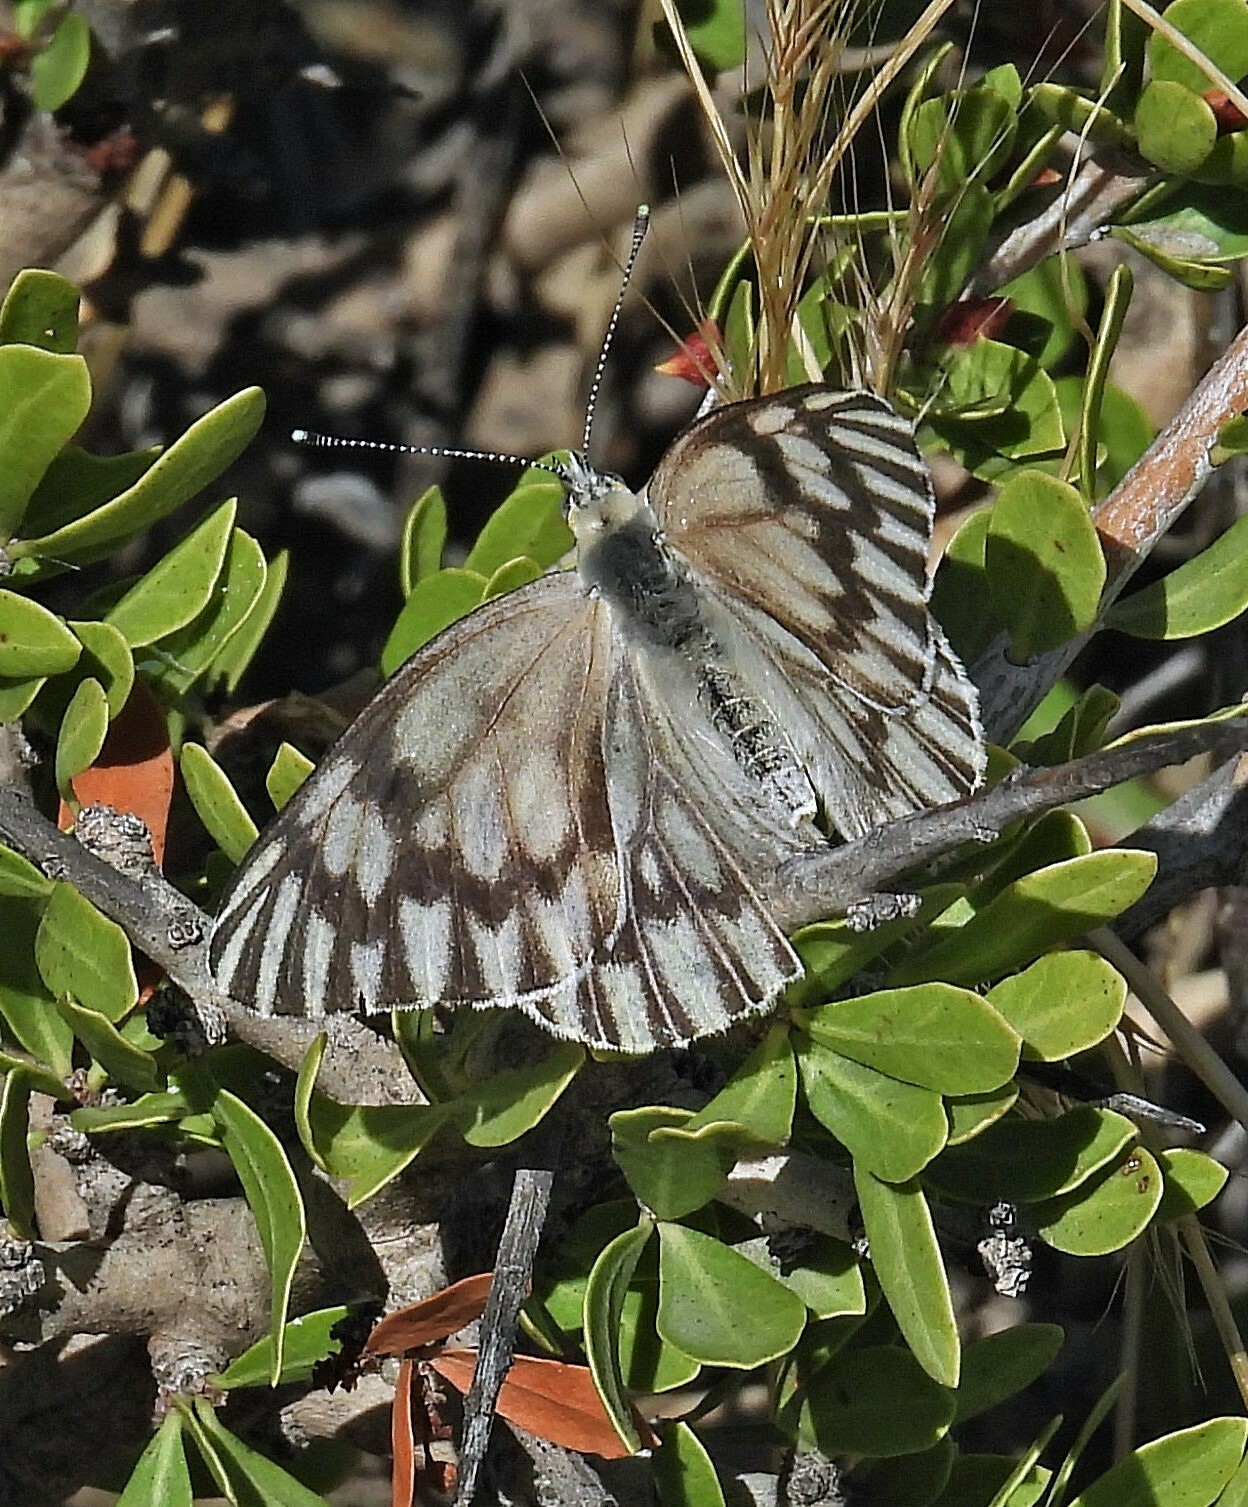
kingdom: Animalia
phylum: Arthropoda
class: Insecta
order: Lepidoptera
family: Pieridae
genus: Tatochila
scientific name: Tatochila mercedis
